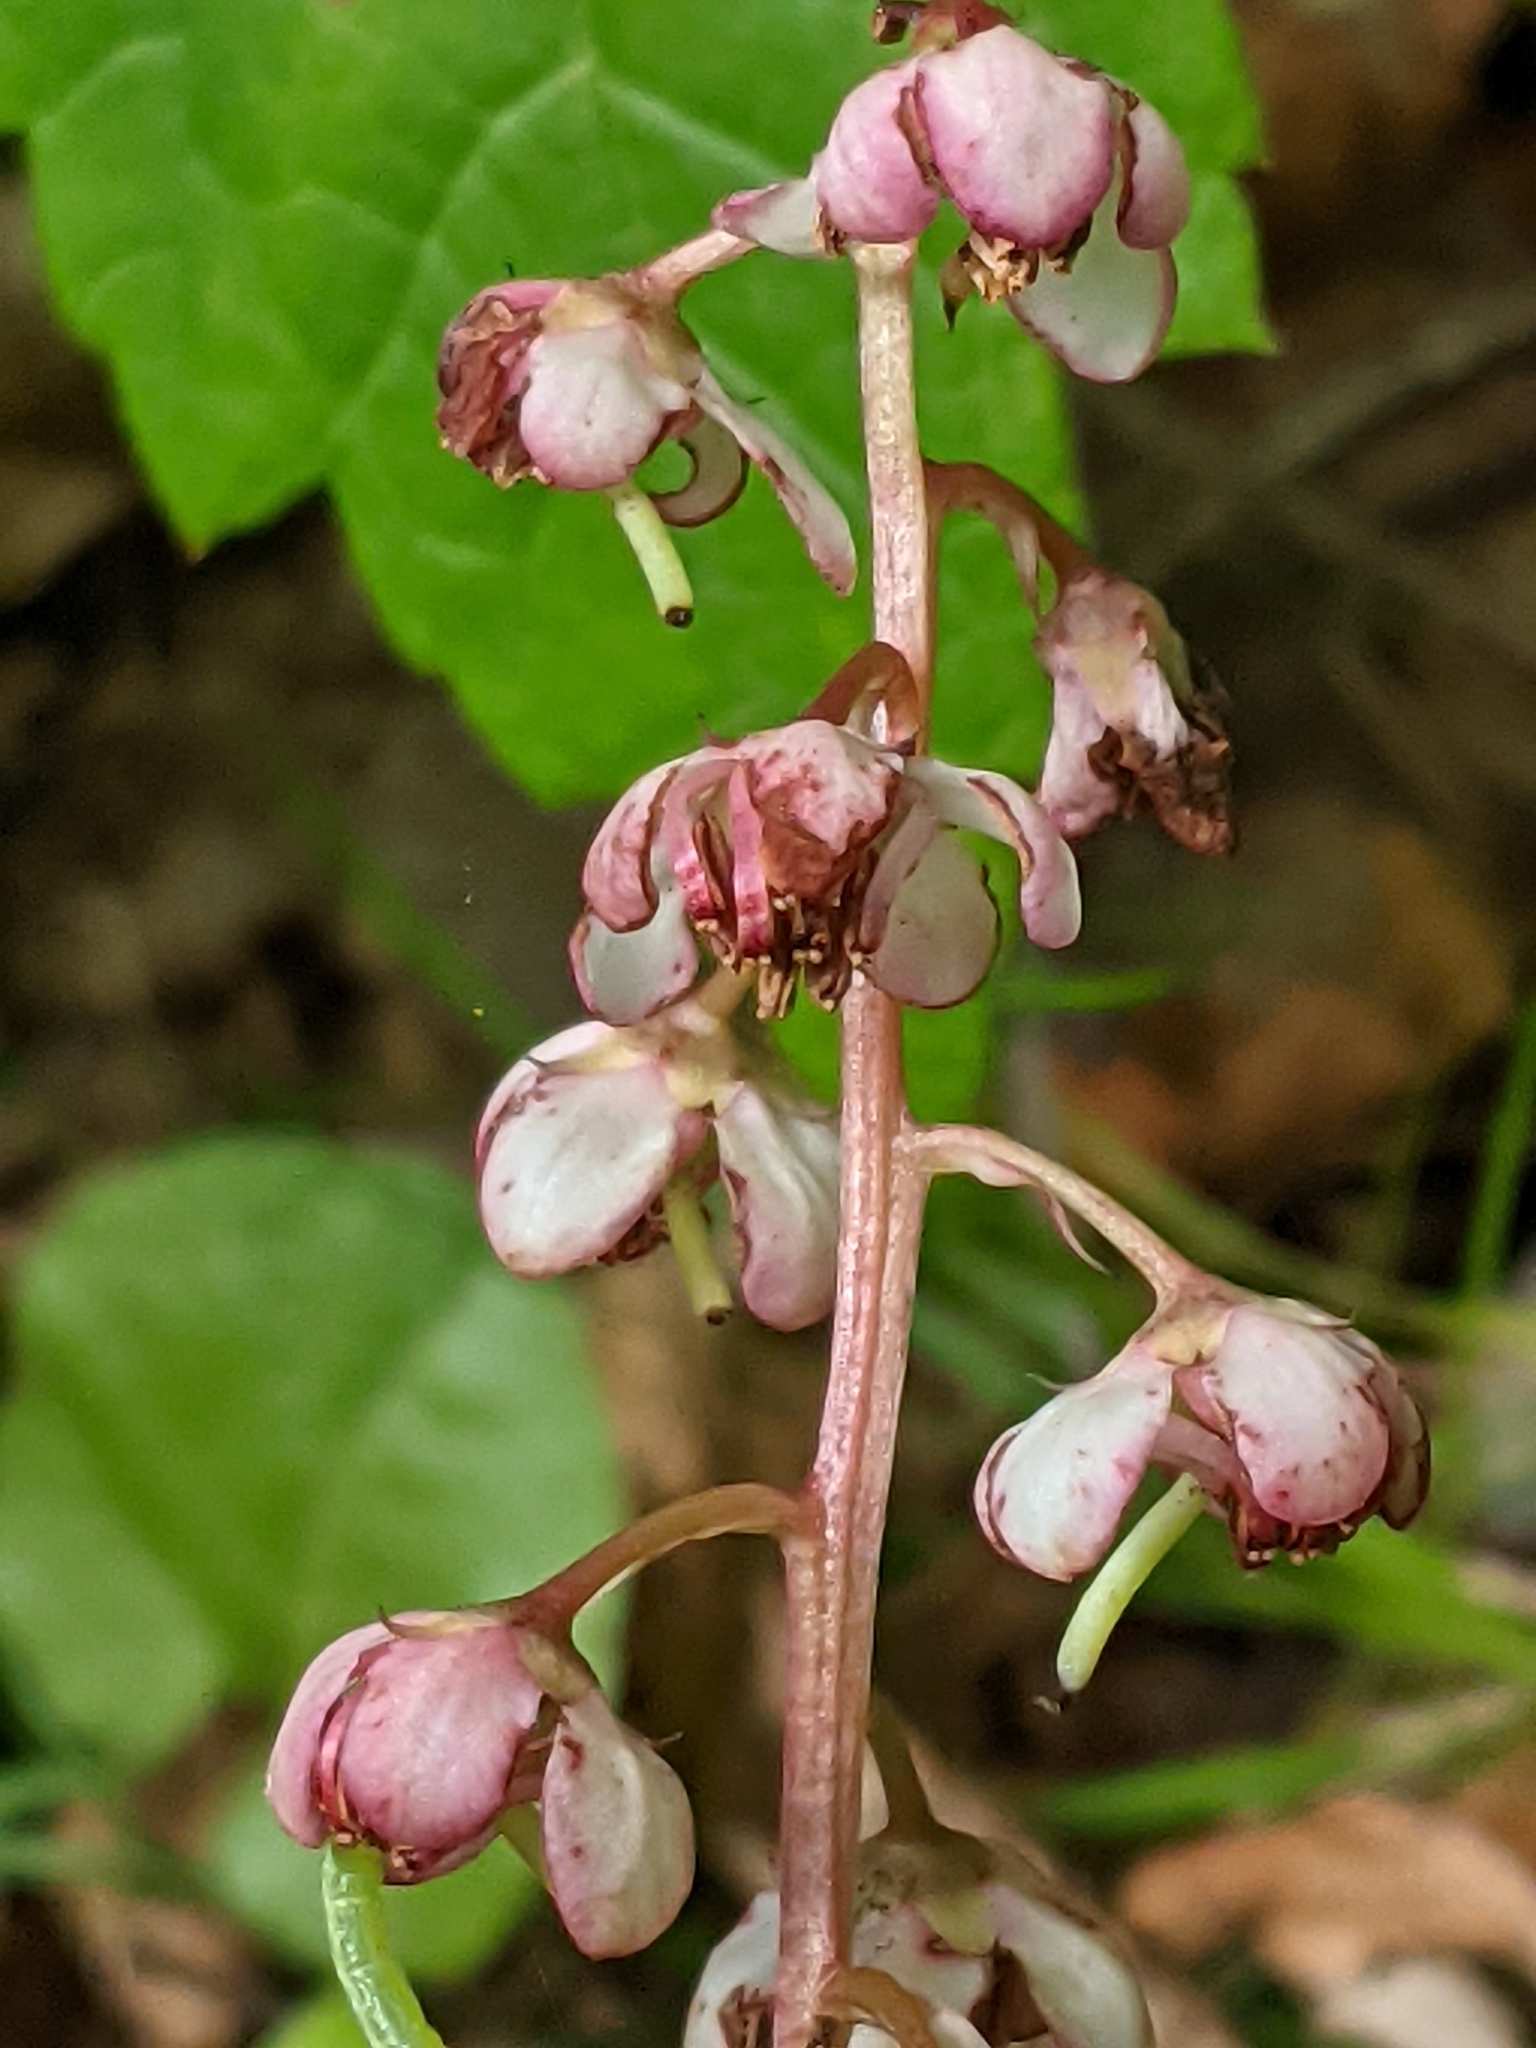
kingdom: Plantae
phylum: Tracheophyta
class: Magnoliopsida
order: Ericales
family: Ericaceae
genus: Pyrola
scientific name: Pyrola asarifolia
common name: Bog wintergreen
